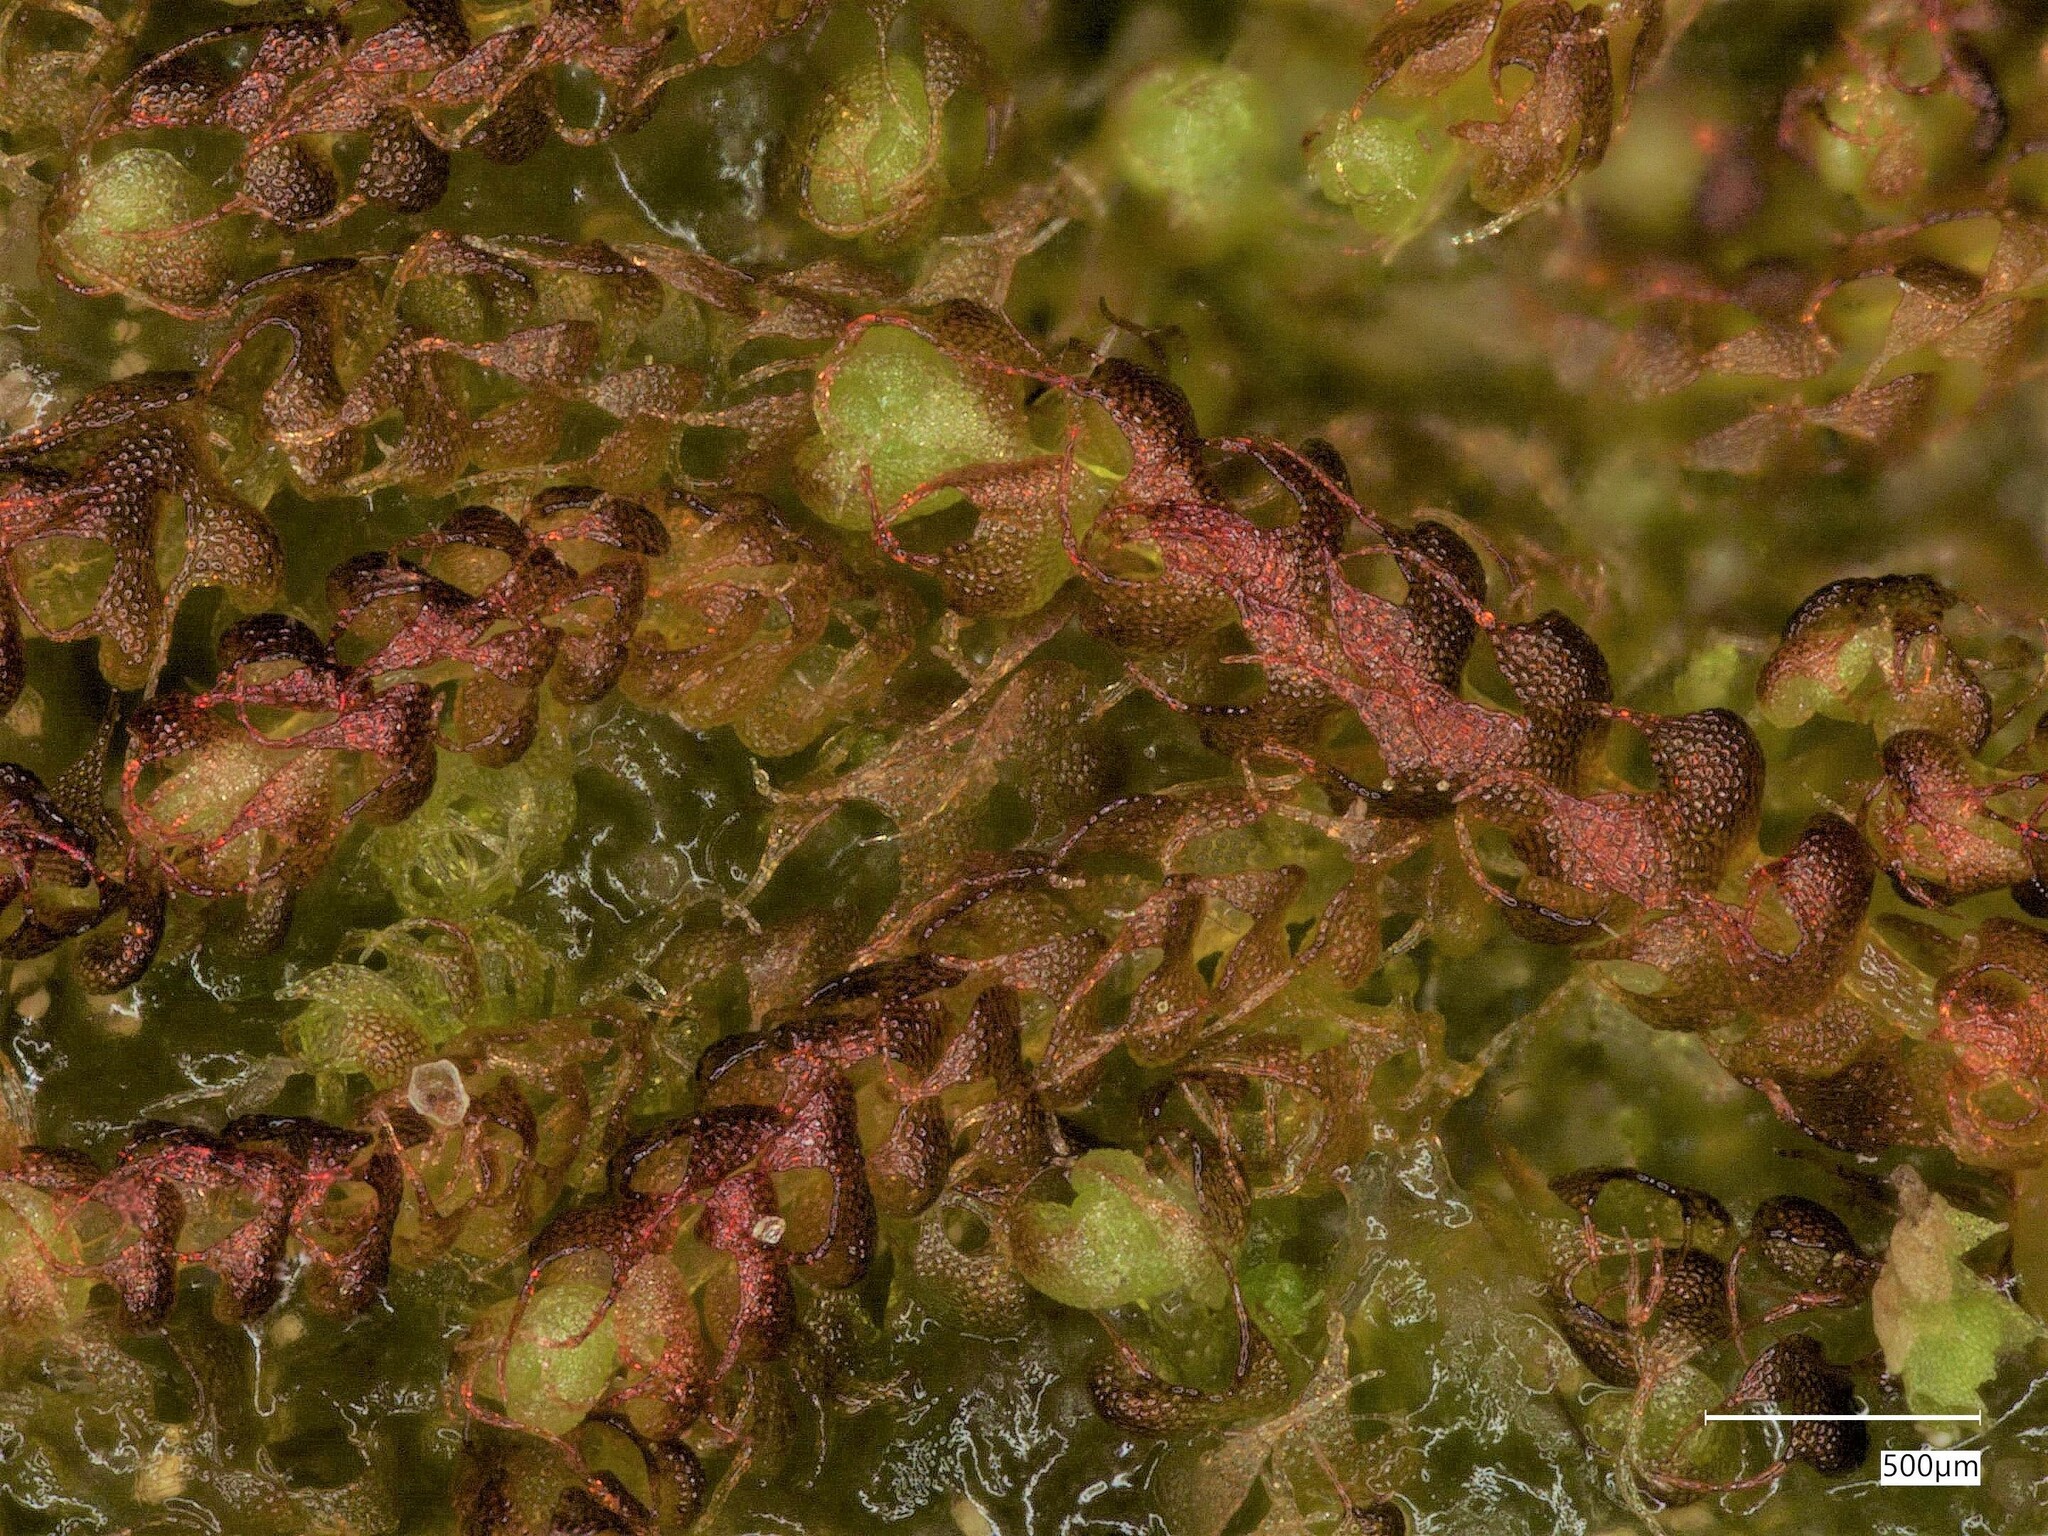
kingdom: Plantae
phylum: Marchantiophyta
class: Jungermanniopsida
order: Jungermanniales
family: Cephaloziaceae
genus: Nowellia
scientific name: Nowellia curvifolia
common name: Wood rustwort
